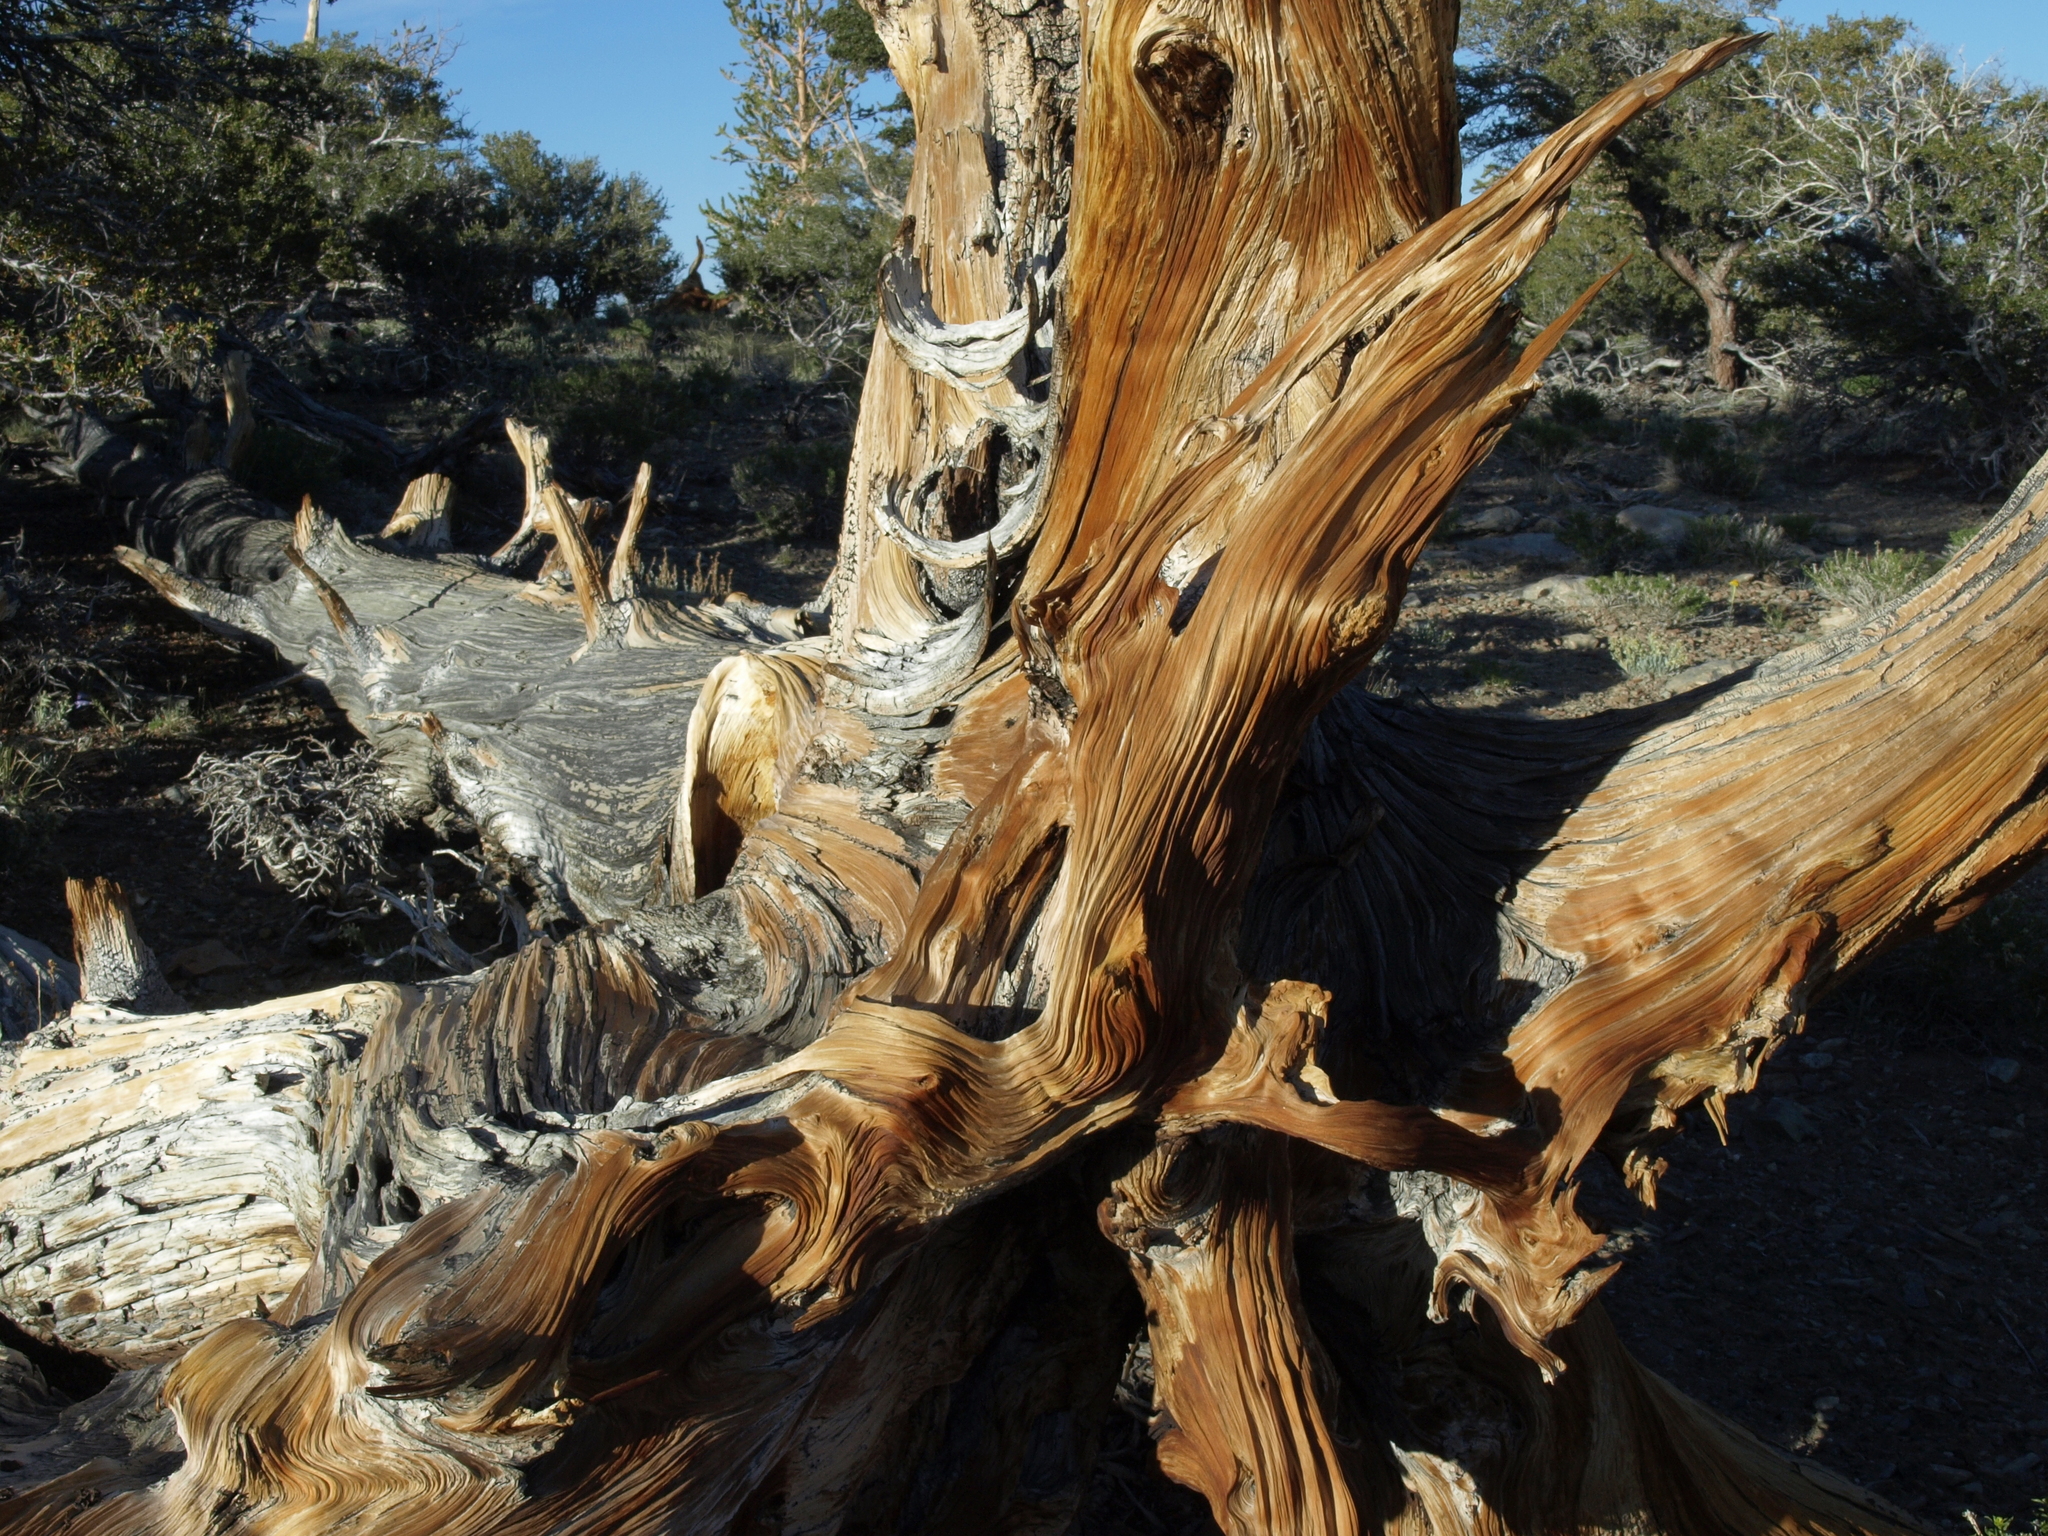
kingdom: Plantae
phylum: Tracheophyta
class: Pinopsida
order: Pinales
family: Pinaceae
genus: Pinus
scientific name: Pinus longaeva
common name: Intermountain bristlecone pine
